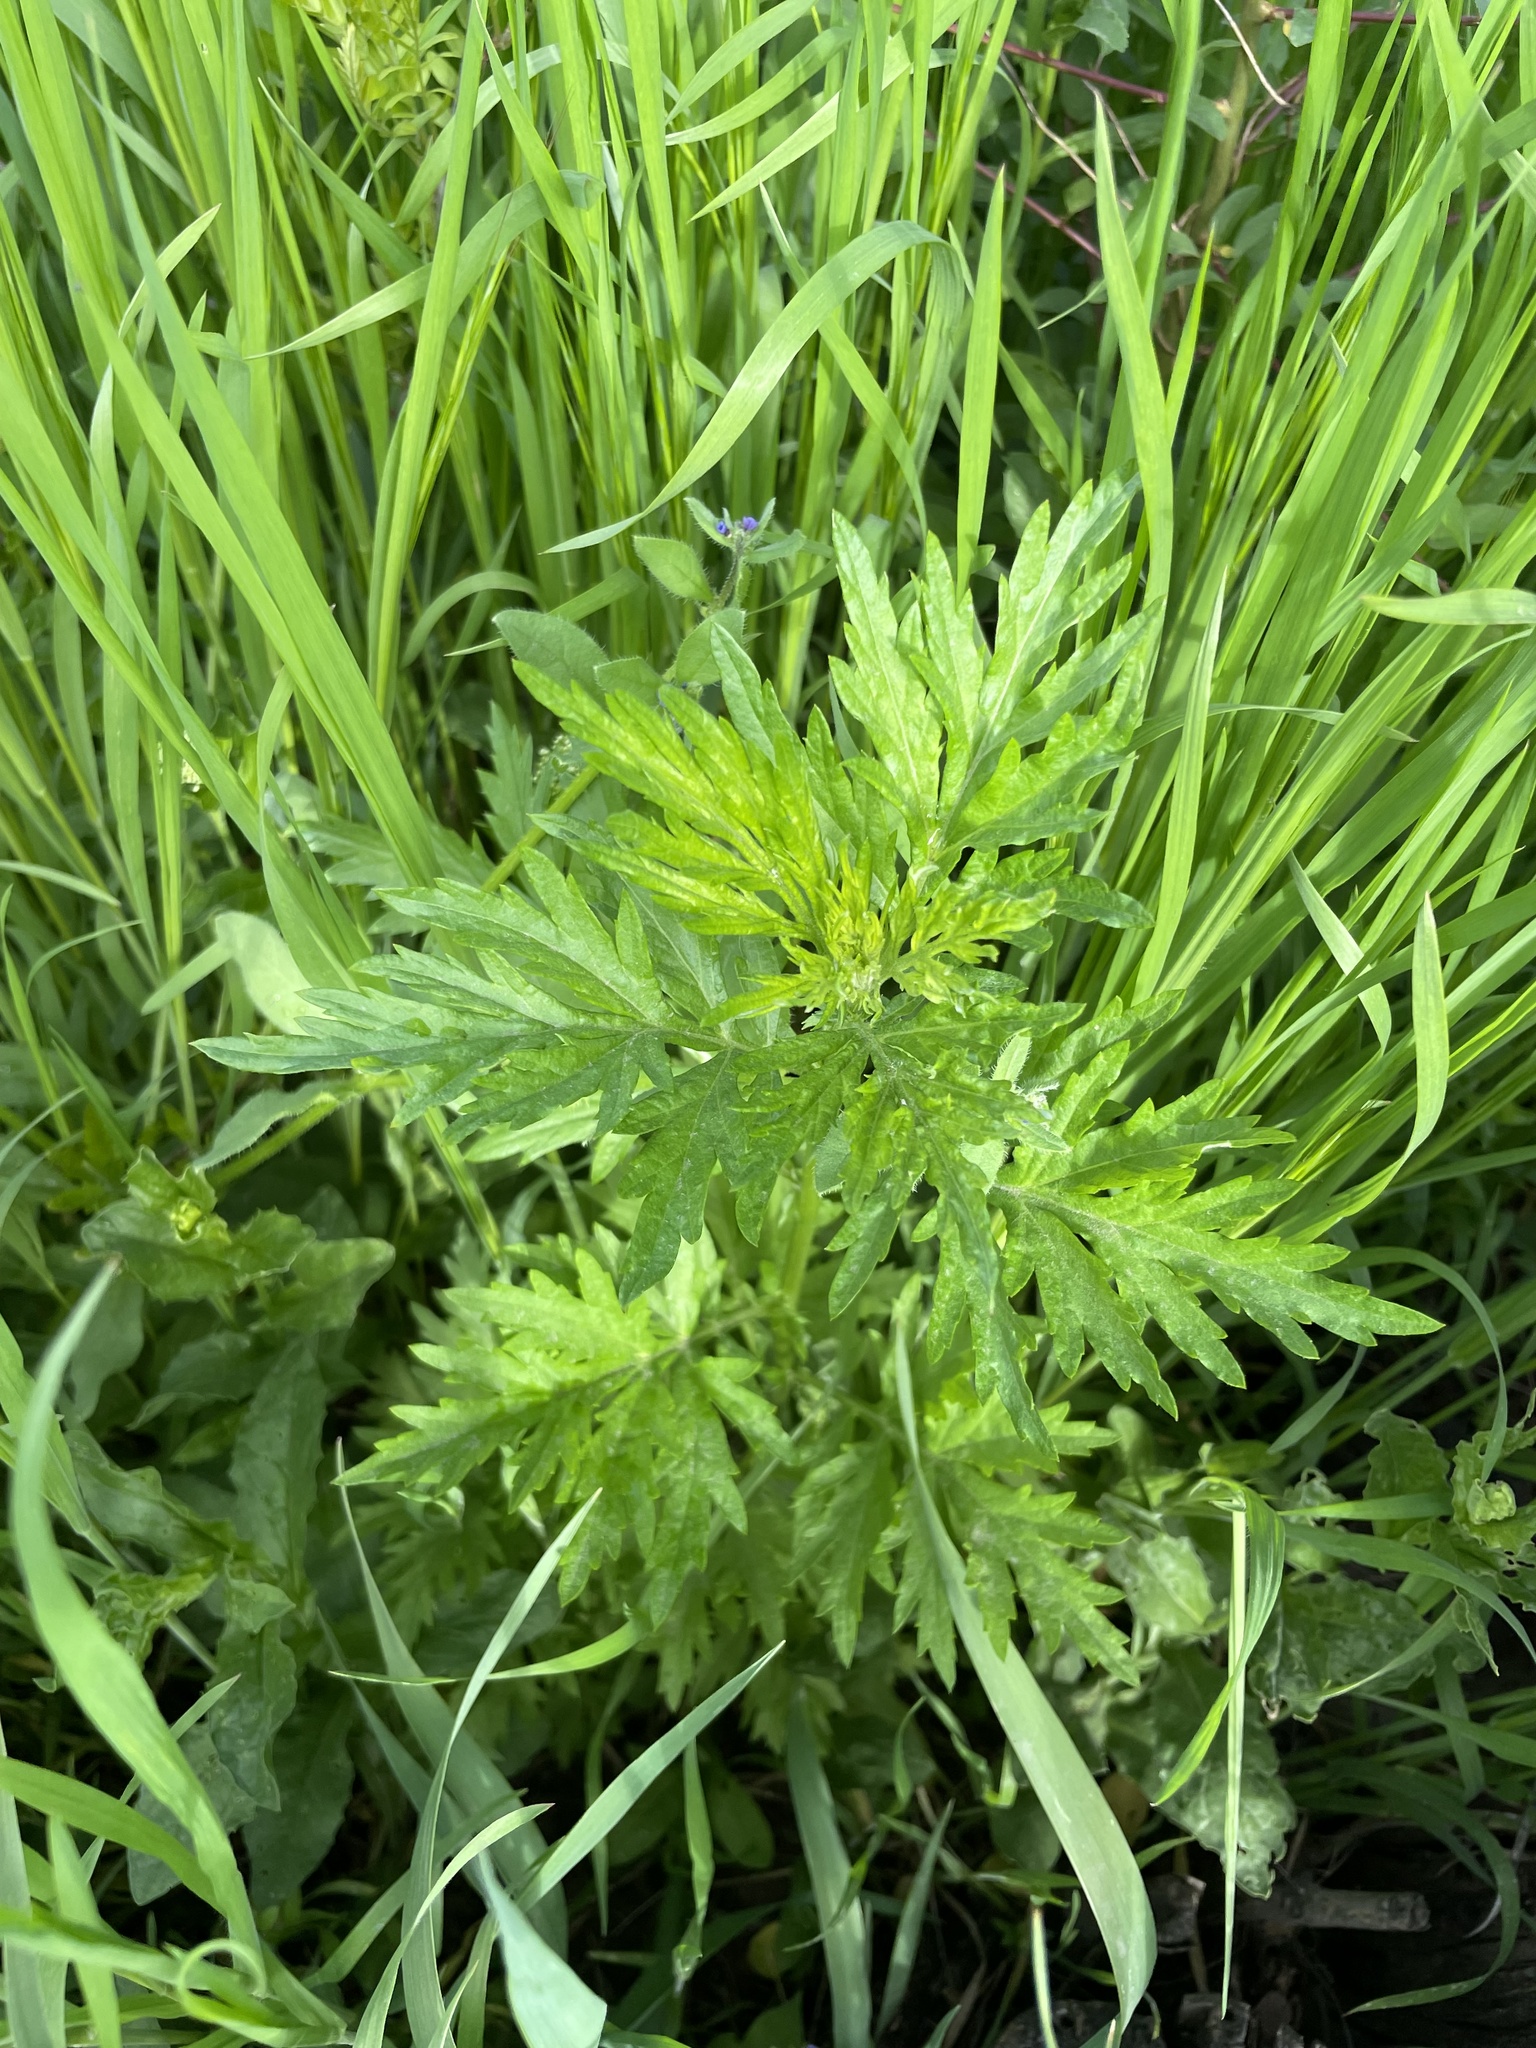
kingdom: Plantae
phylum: Tracheophyta
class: Magnoliopsida
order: Asterales
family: Asteraceae
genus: Artemisia
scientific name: Artemisia vulgaris
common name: Mugwort
